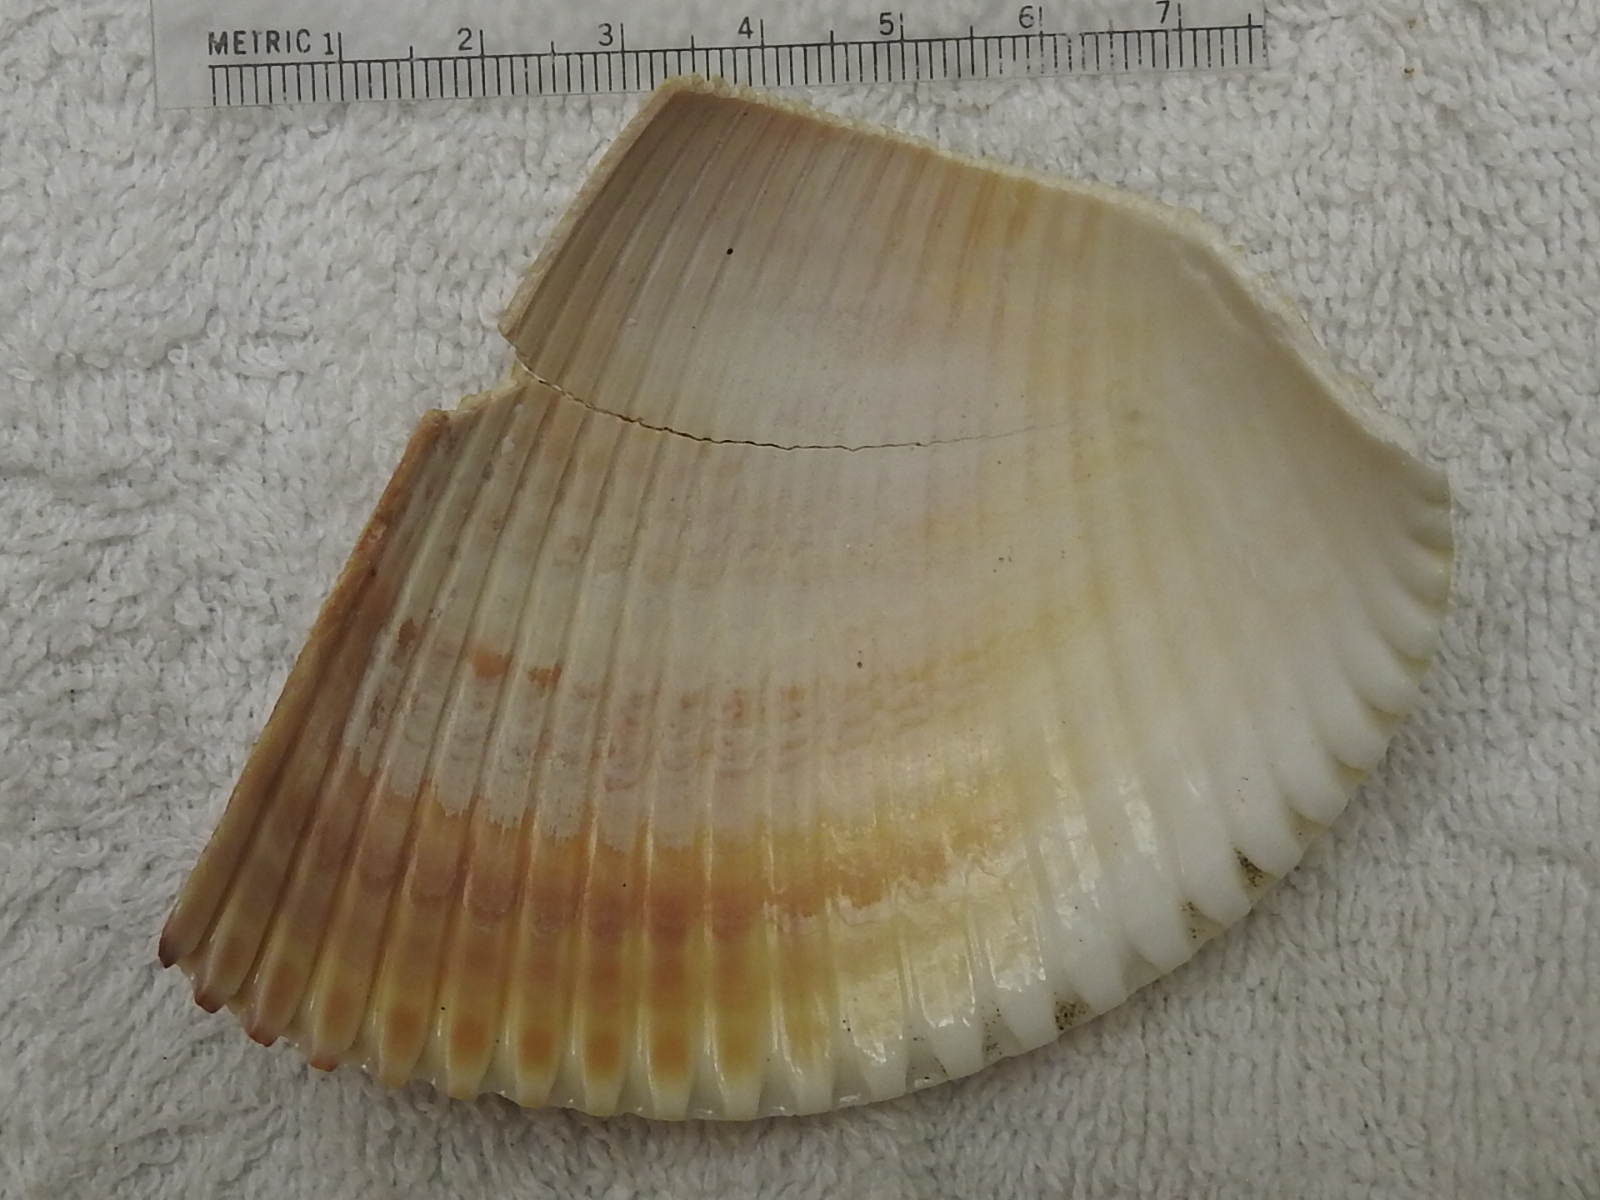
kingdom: Animalia
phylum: Mollusca
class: Bivalvia
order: Cardiida
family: Cardiidae
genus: Dinocardium
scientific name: Dinocardium robustum
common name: Atlantic giant cockle
